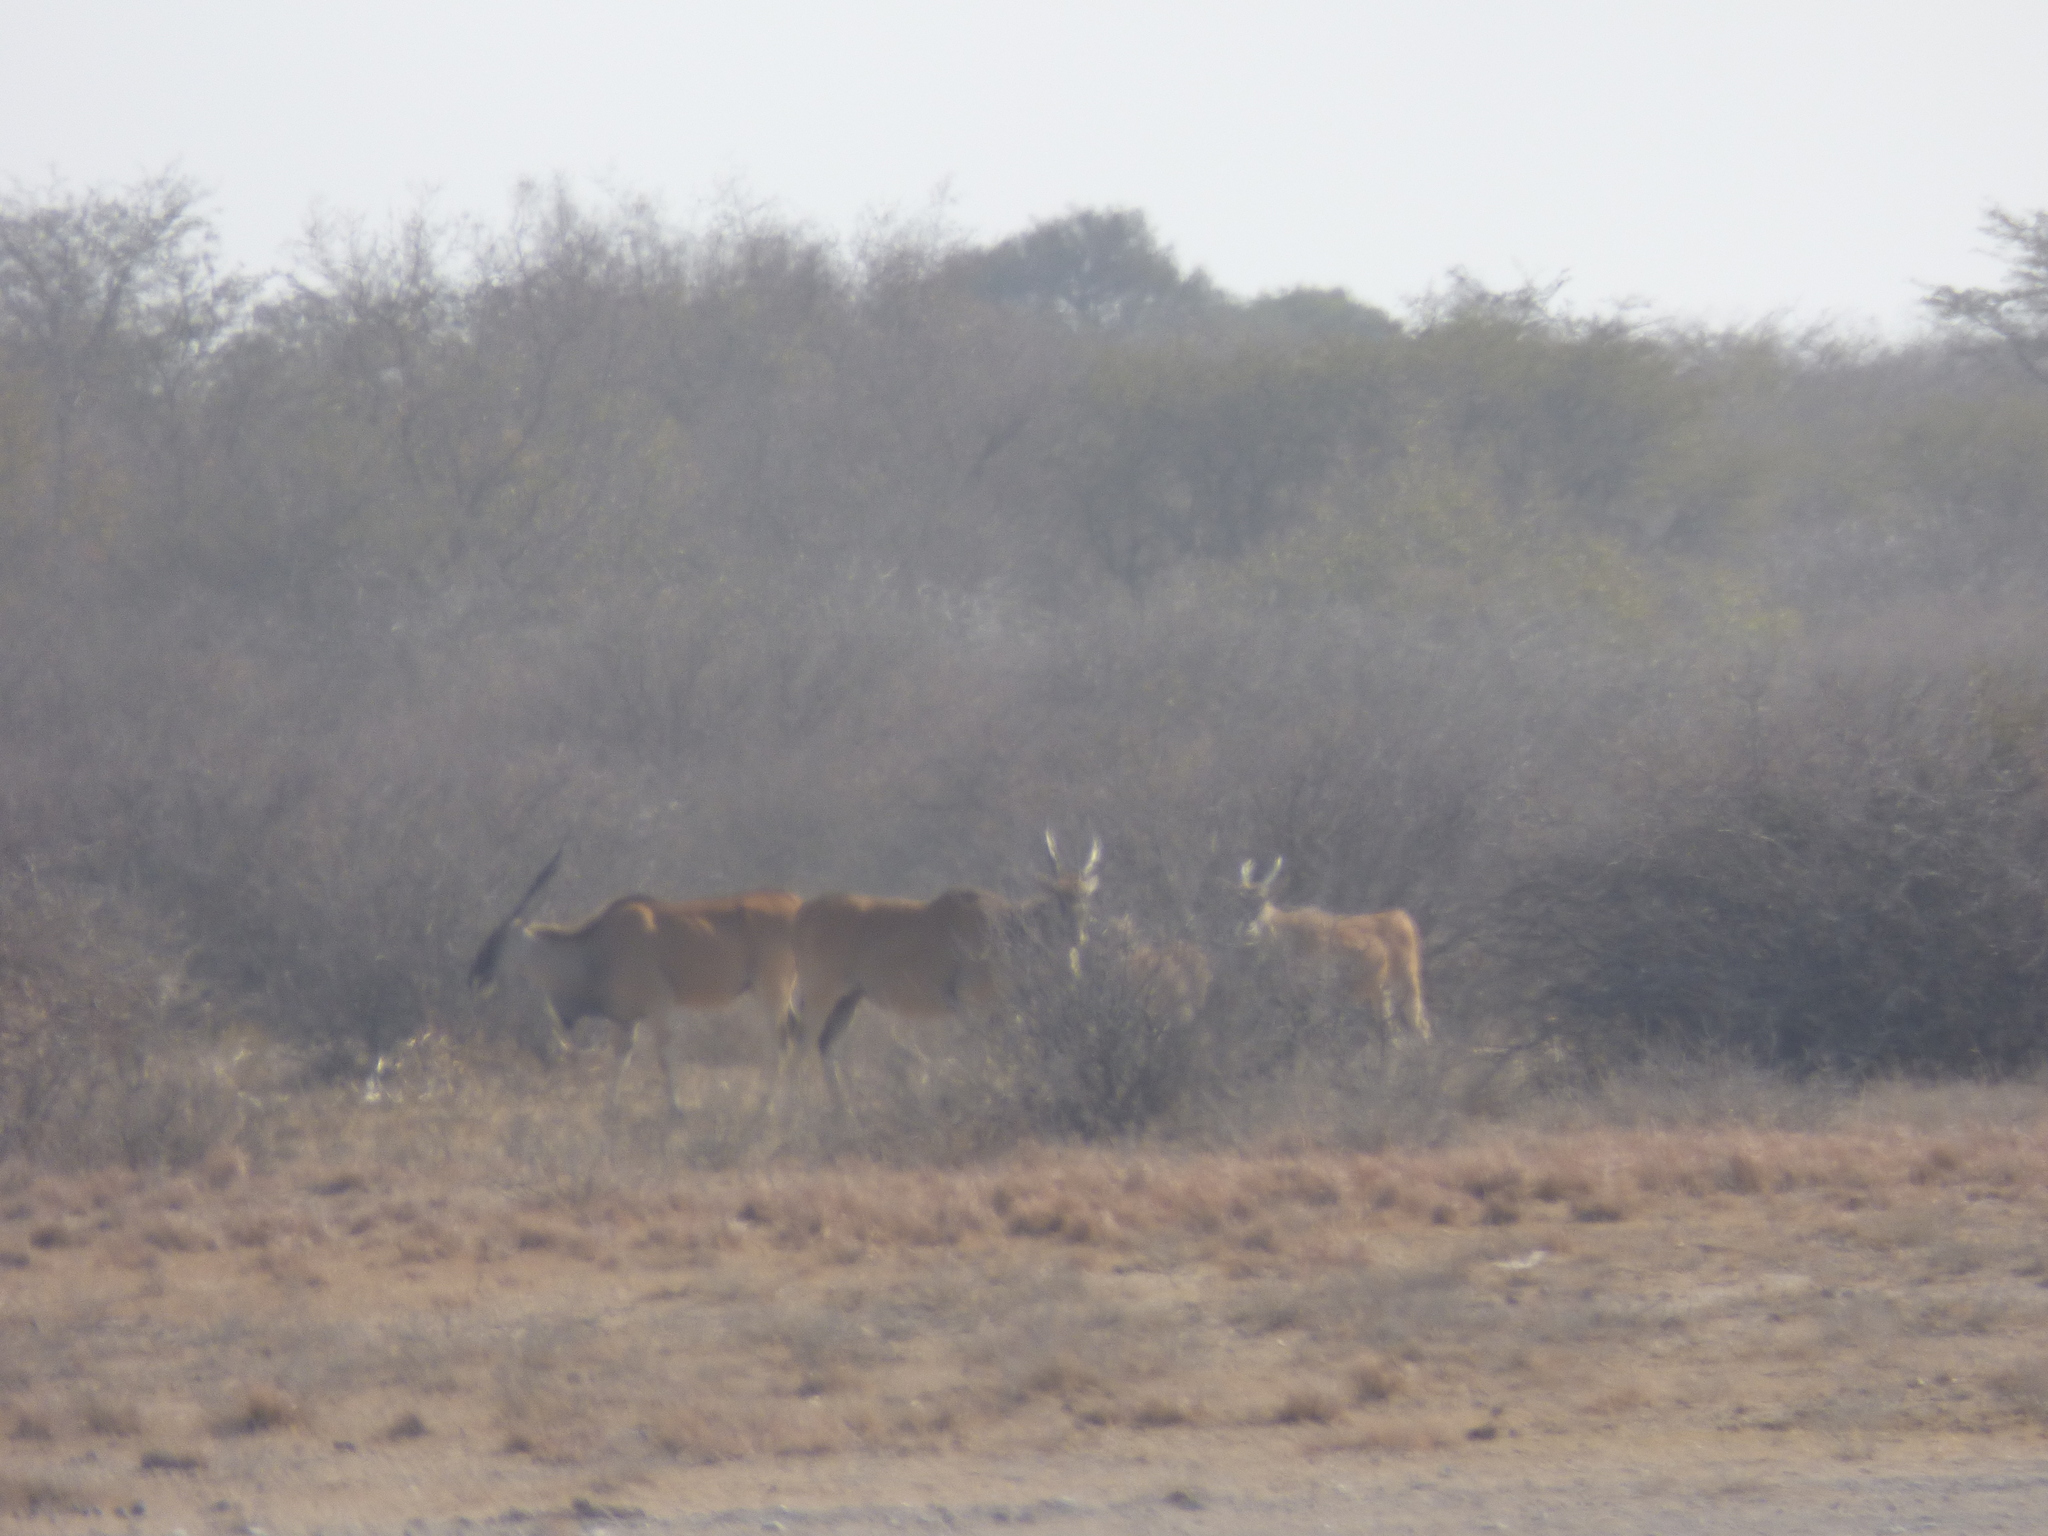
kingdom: Animalia
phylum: Chordata
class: Mammalia
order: Artiodactyla
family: Bovidae
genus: Taurotragus
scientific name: Taurotragus oryx
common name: Common eland
